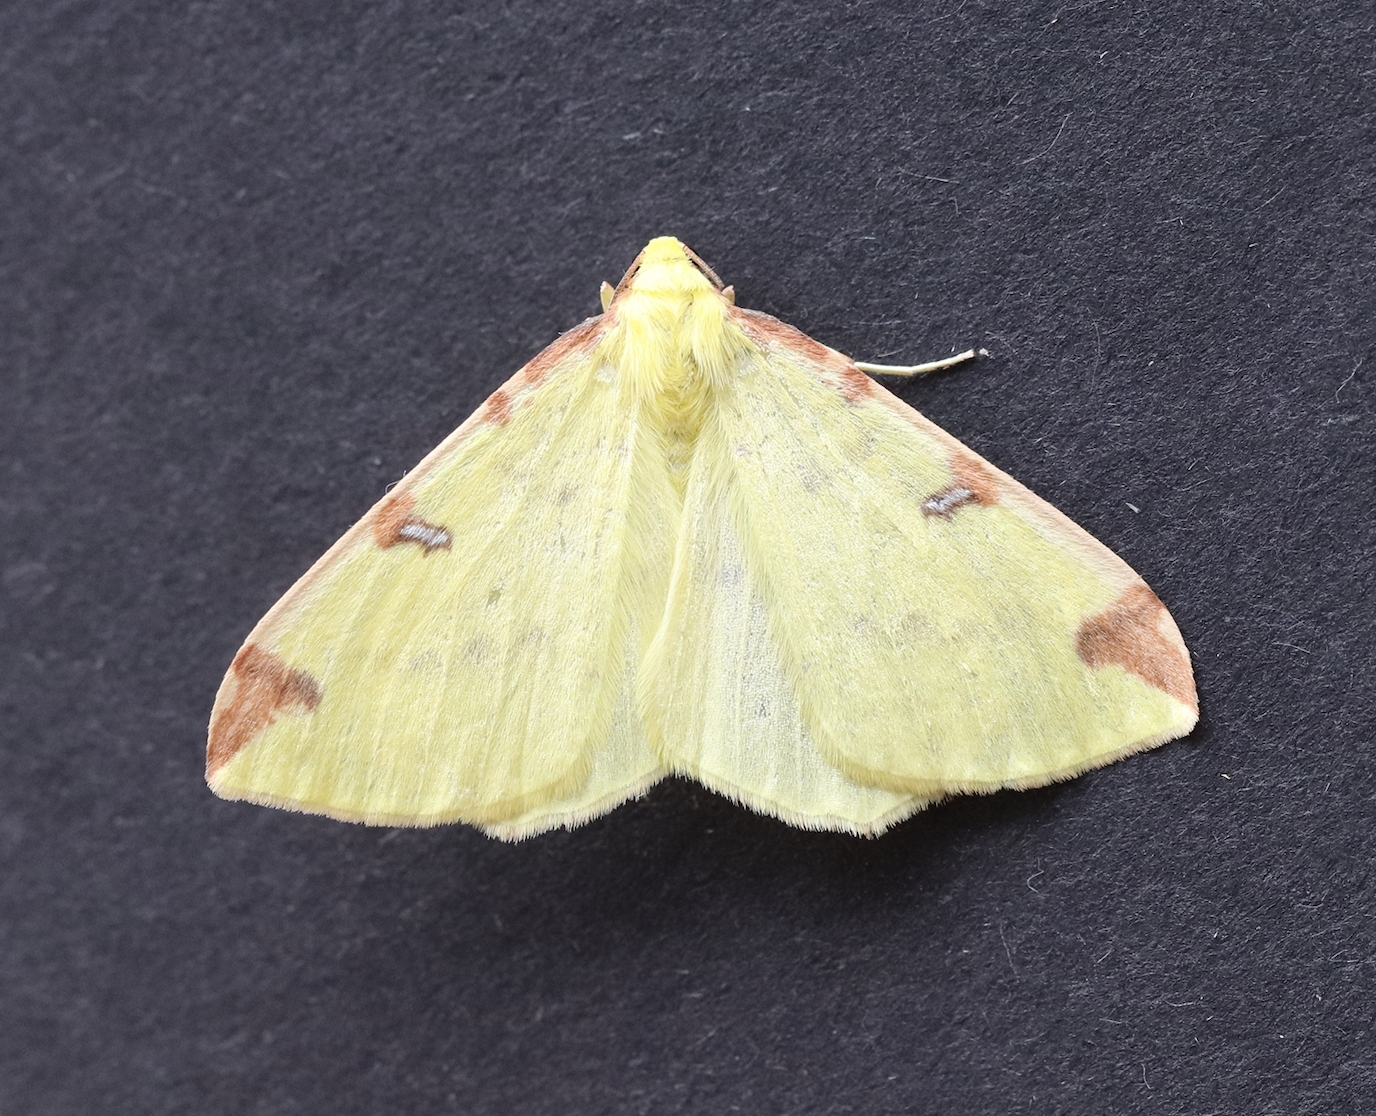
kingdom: Animalia
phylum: Arthropoda
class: Insecta
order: Lepidoptera
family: Geometridae
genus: Opisthograptis
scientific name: Opisthograptis luteolata
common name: Brimstone moth
